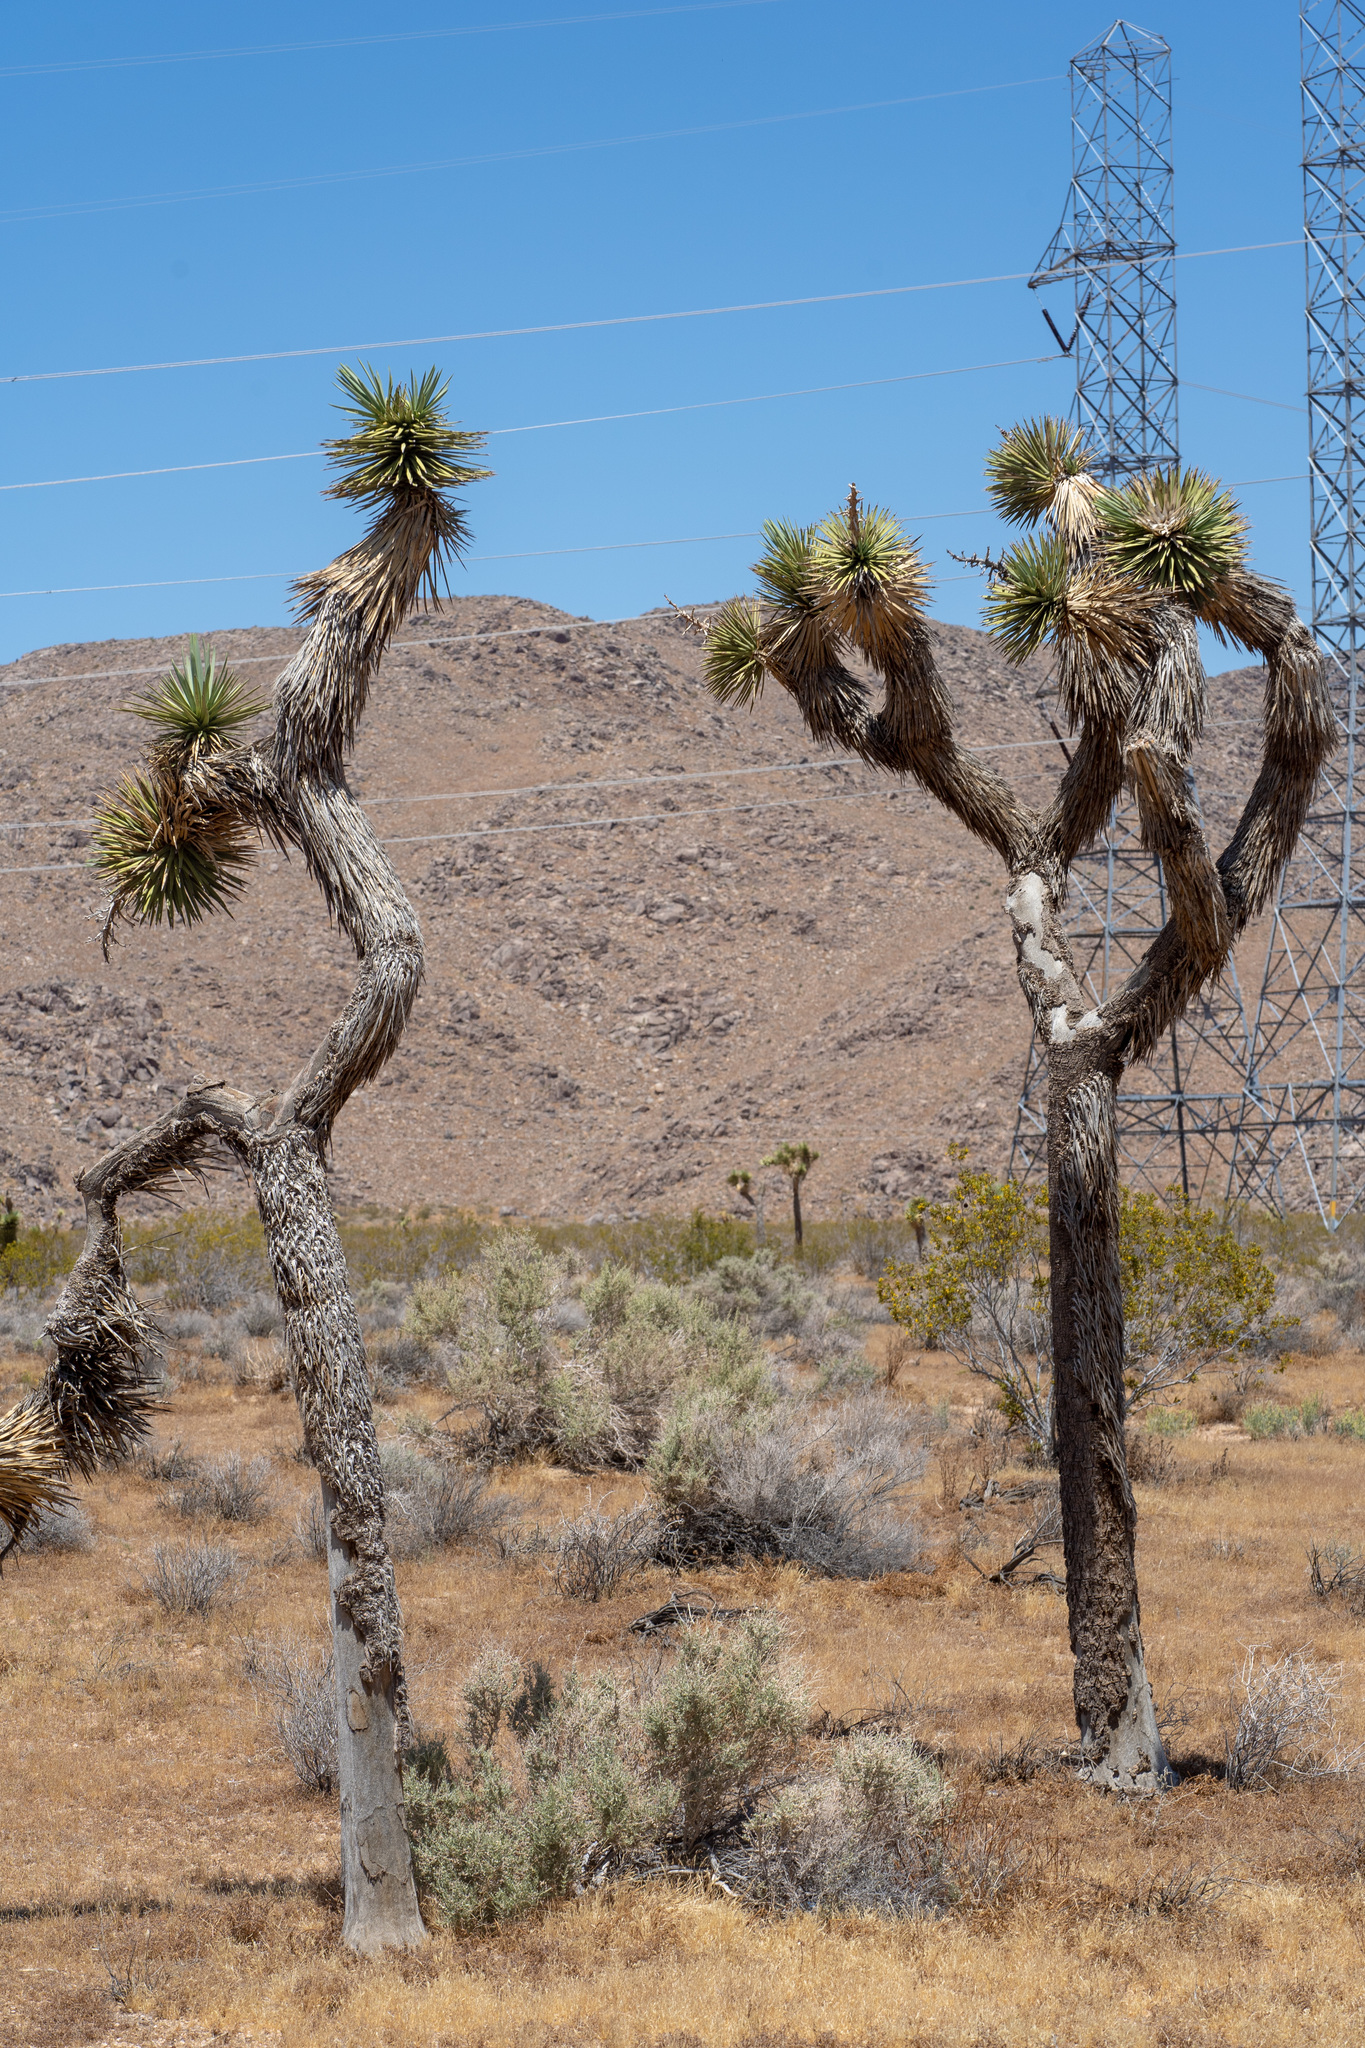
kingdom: Plantae
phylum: Tracheophyta
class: Liliopsida
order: Asparagales
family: Asparagaceae
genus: Yucca
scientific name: Yucca brevifolia
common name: Joshua tree
